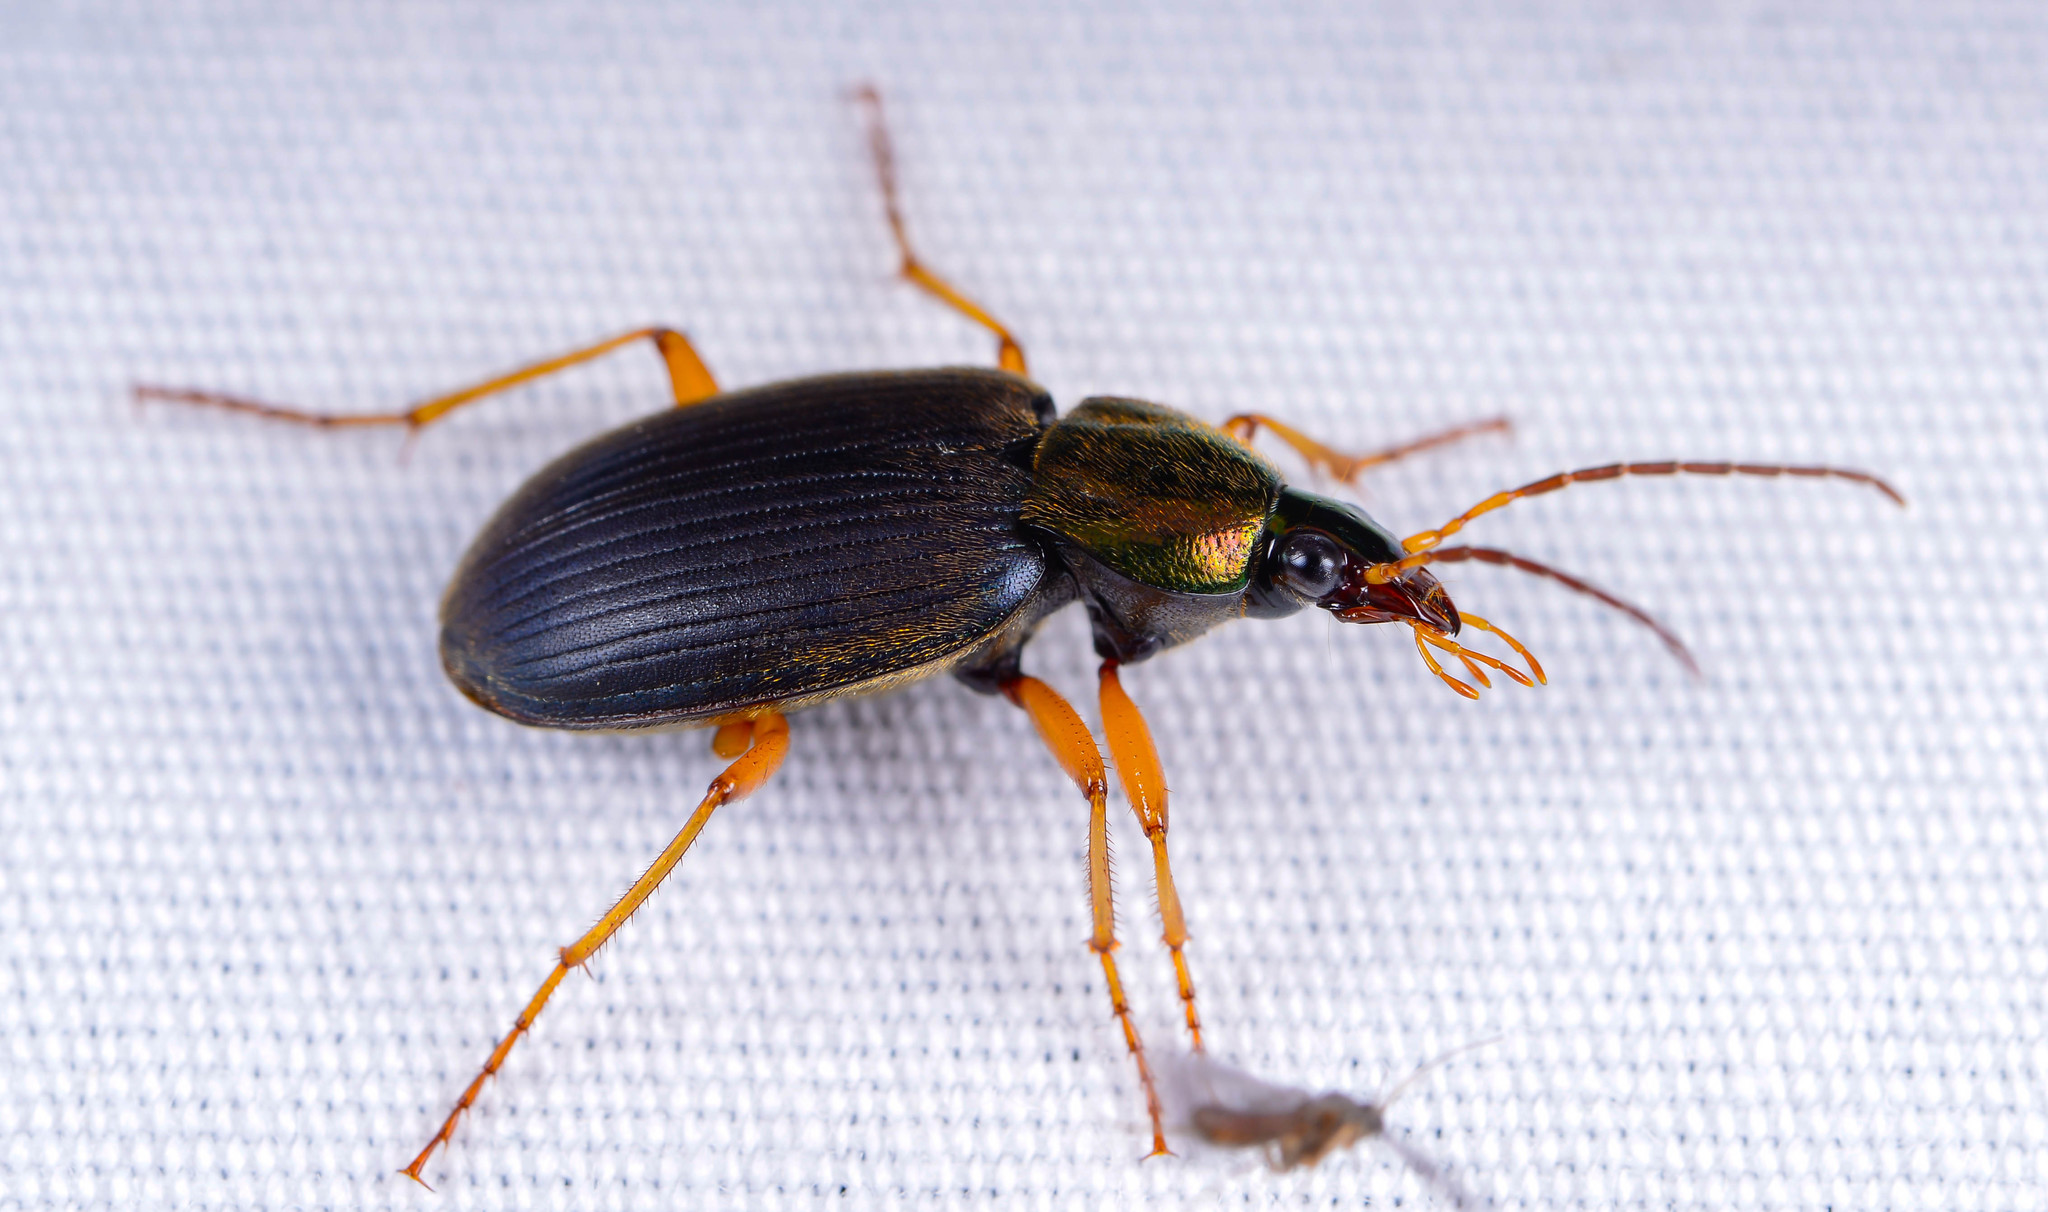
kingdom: Animalia
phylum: Arthropoda
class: Insecta
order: Coleoptera
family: Carabidae
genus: Chlaenius
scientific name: Chlaenius tricolor
